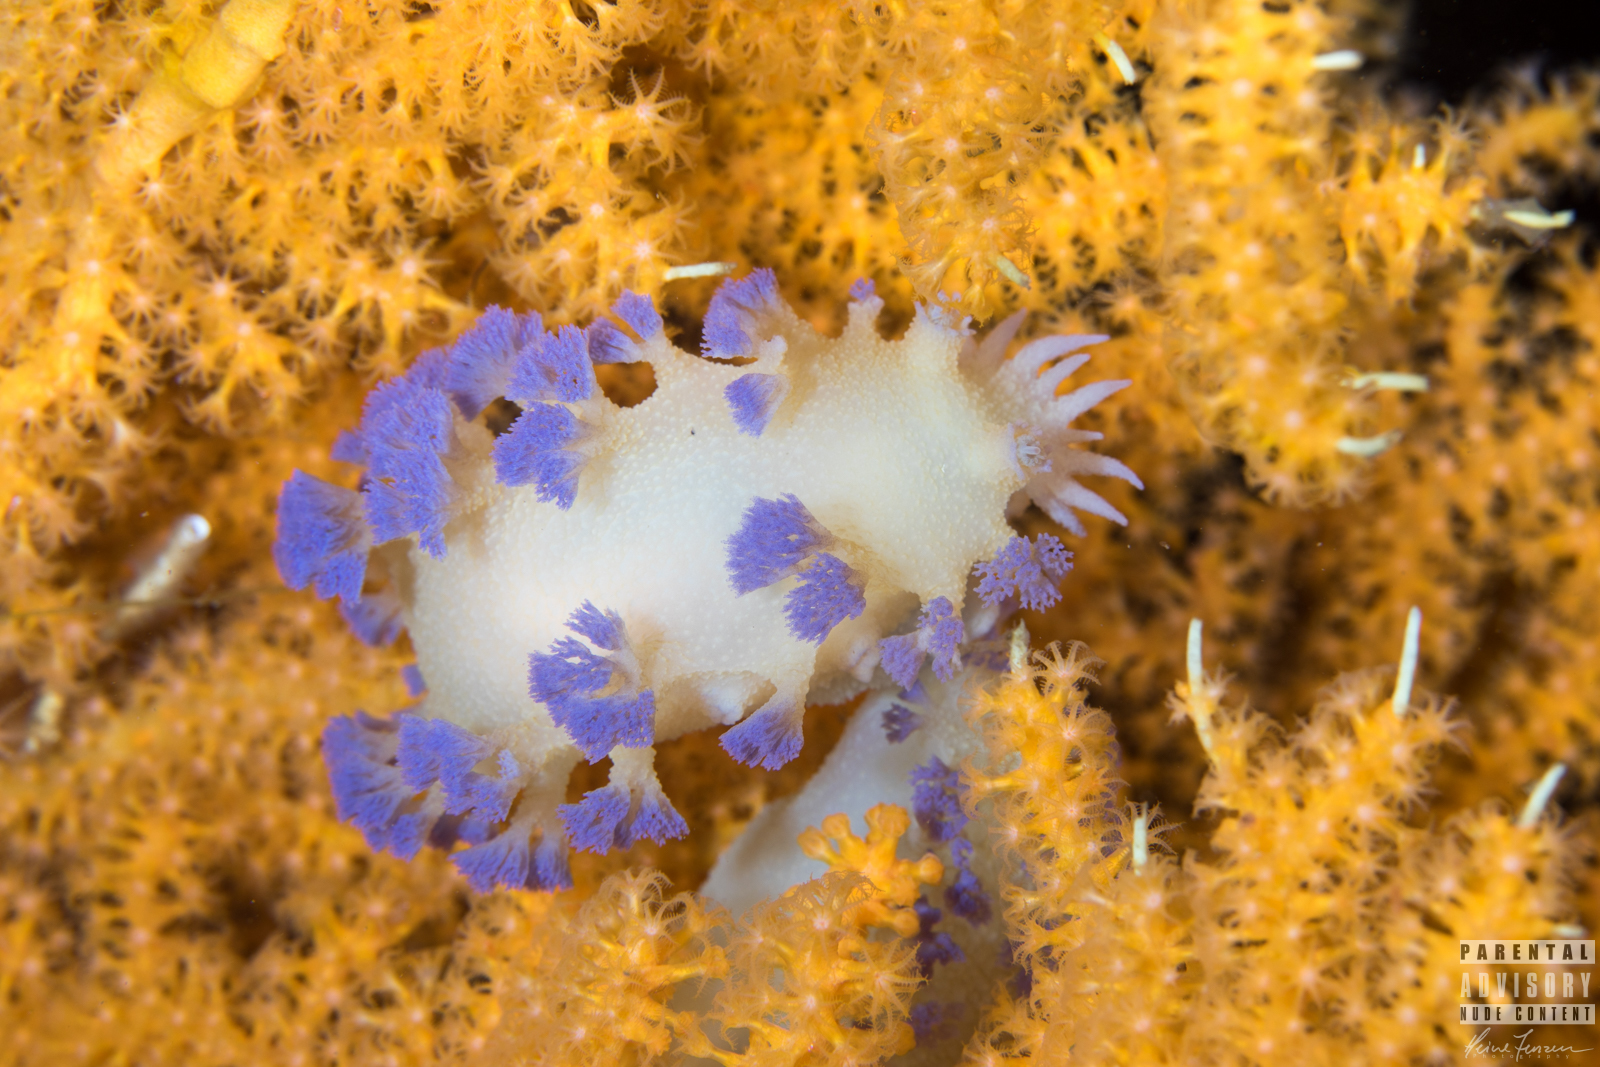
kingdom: Animalia
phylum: Mollusca
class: Gastropoda
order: Nudibranchia
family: Tritoniidae
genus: Tritonia
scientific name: Tritonia griegi
